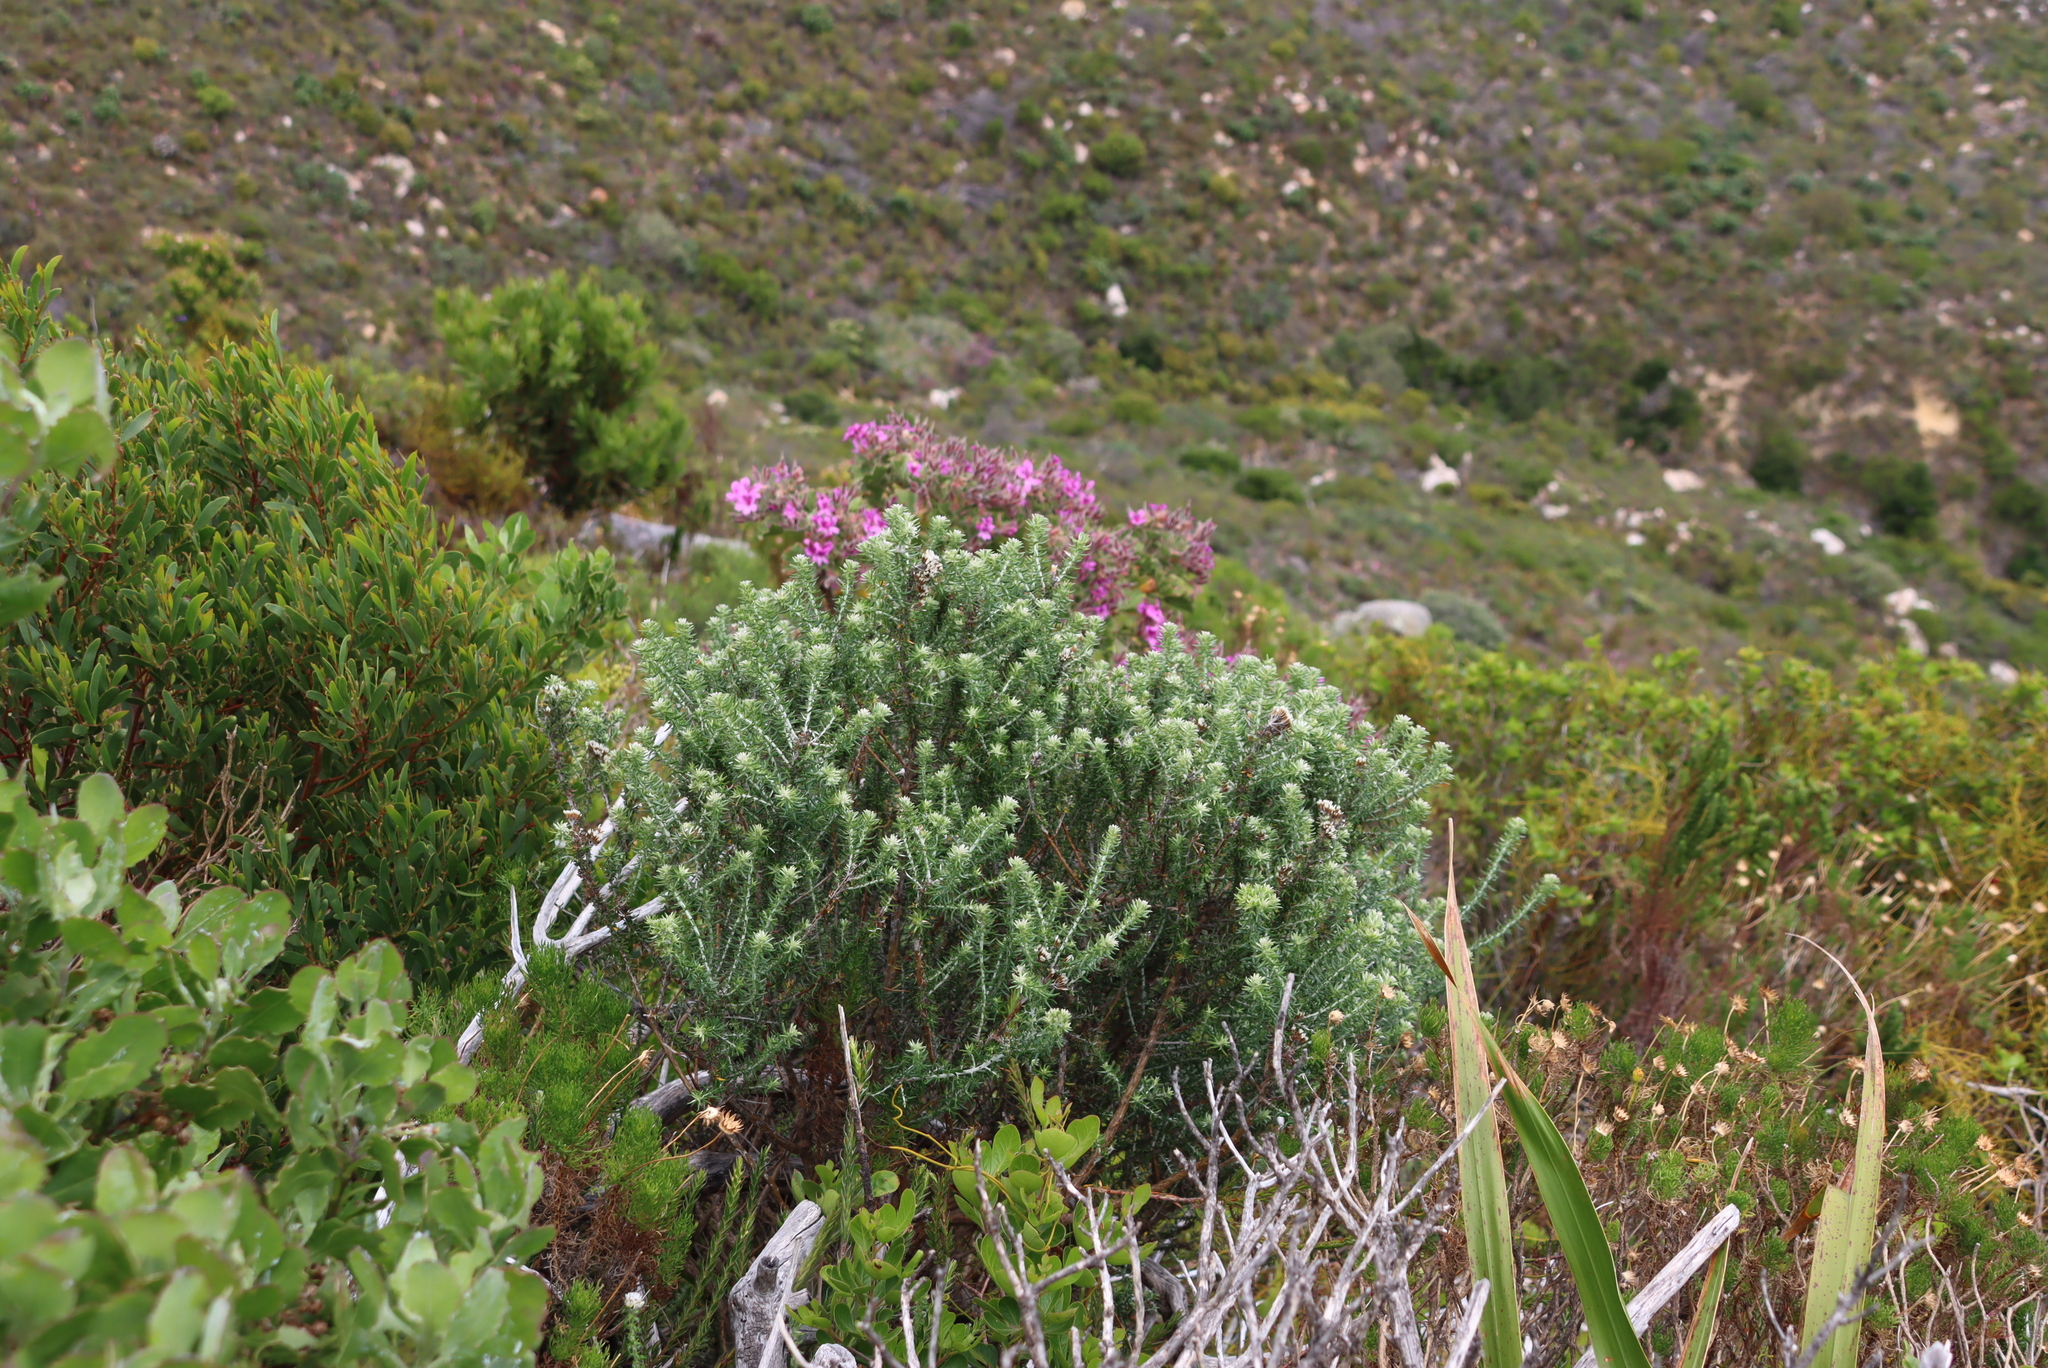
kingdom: Plantae
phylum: Tracheophyta
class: Magnoliopsida
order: Geraniales
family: Geraniaceae
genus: Pelargonium
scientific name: Pelargonium cucullatum
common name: Tree pelargonium
